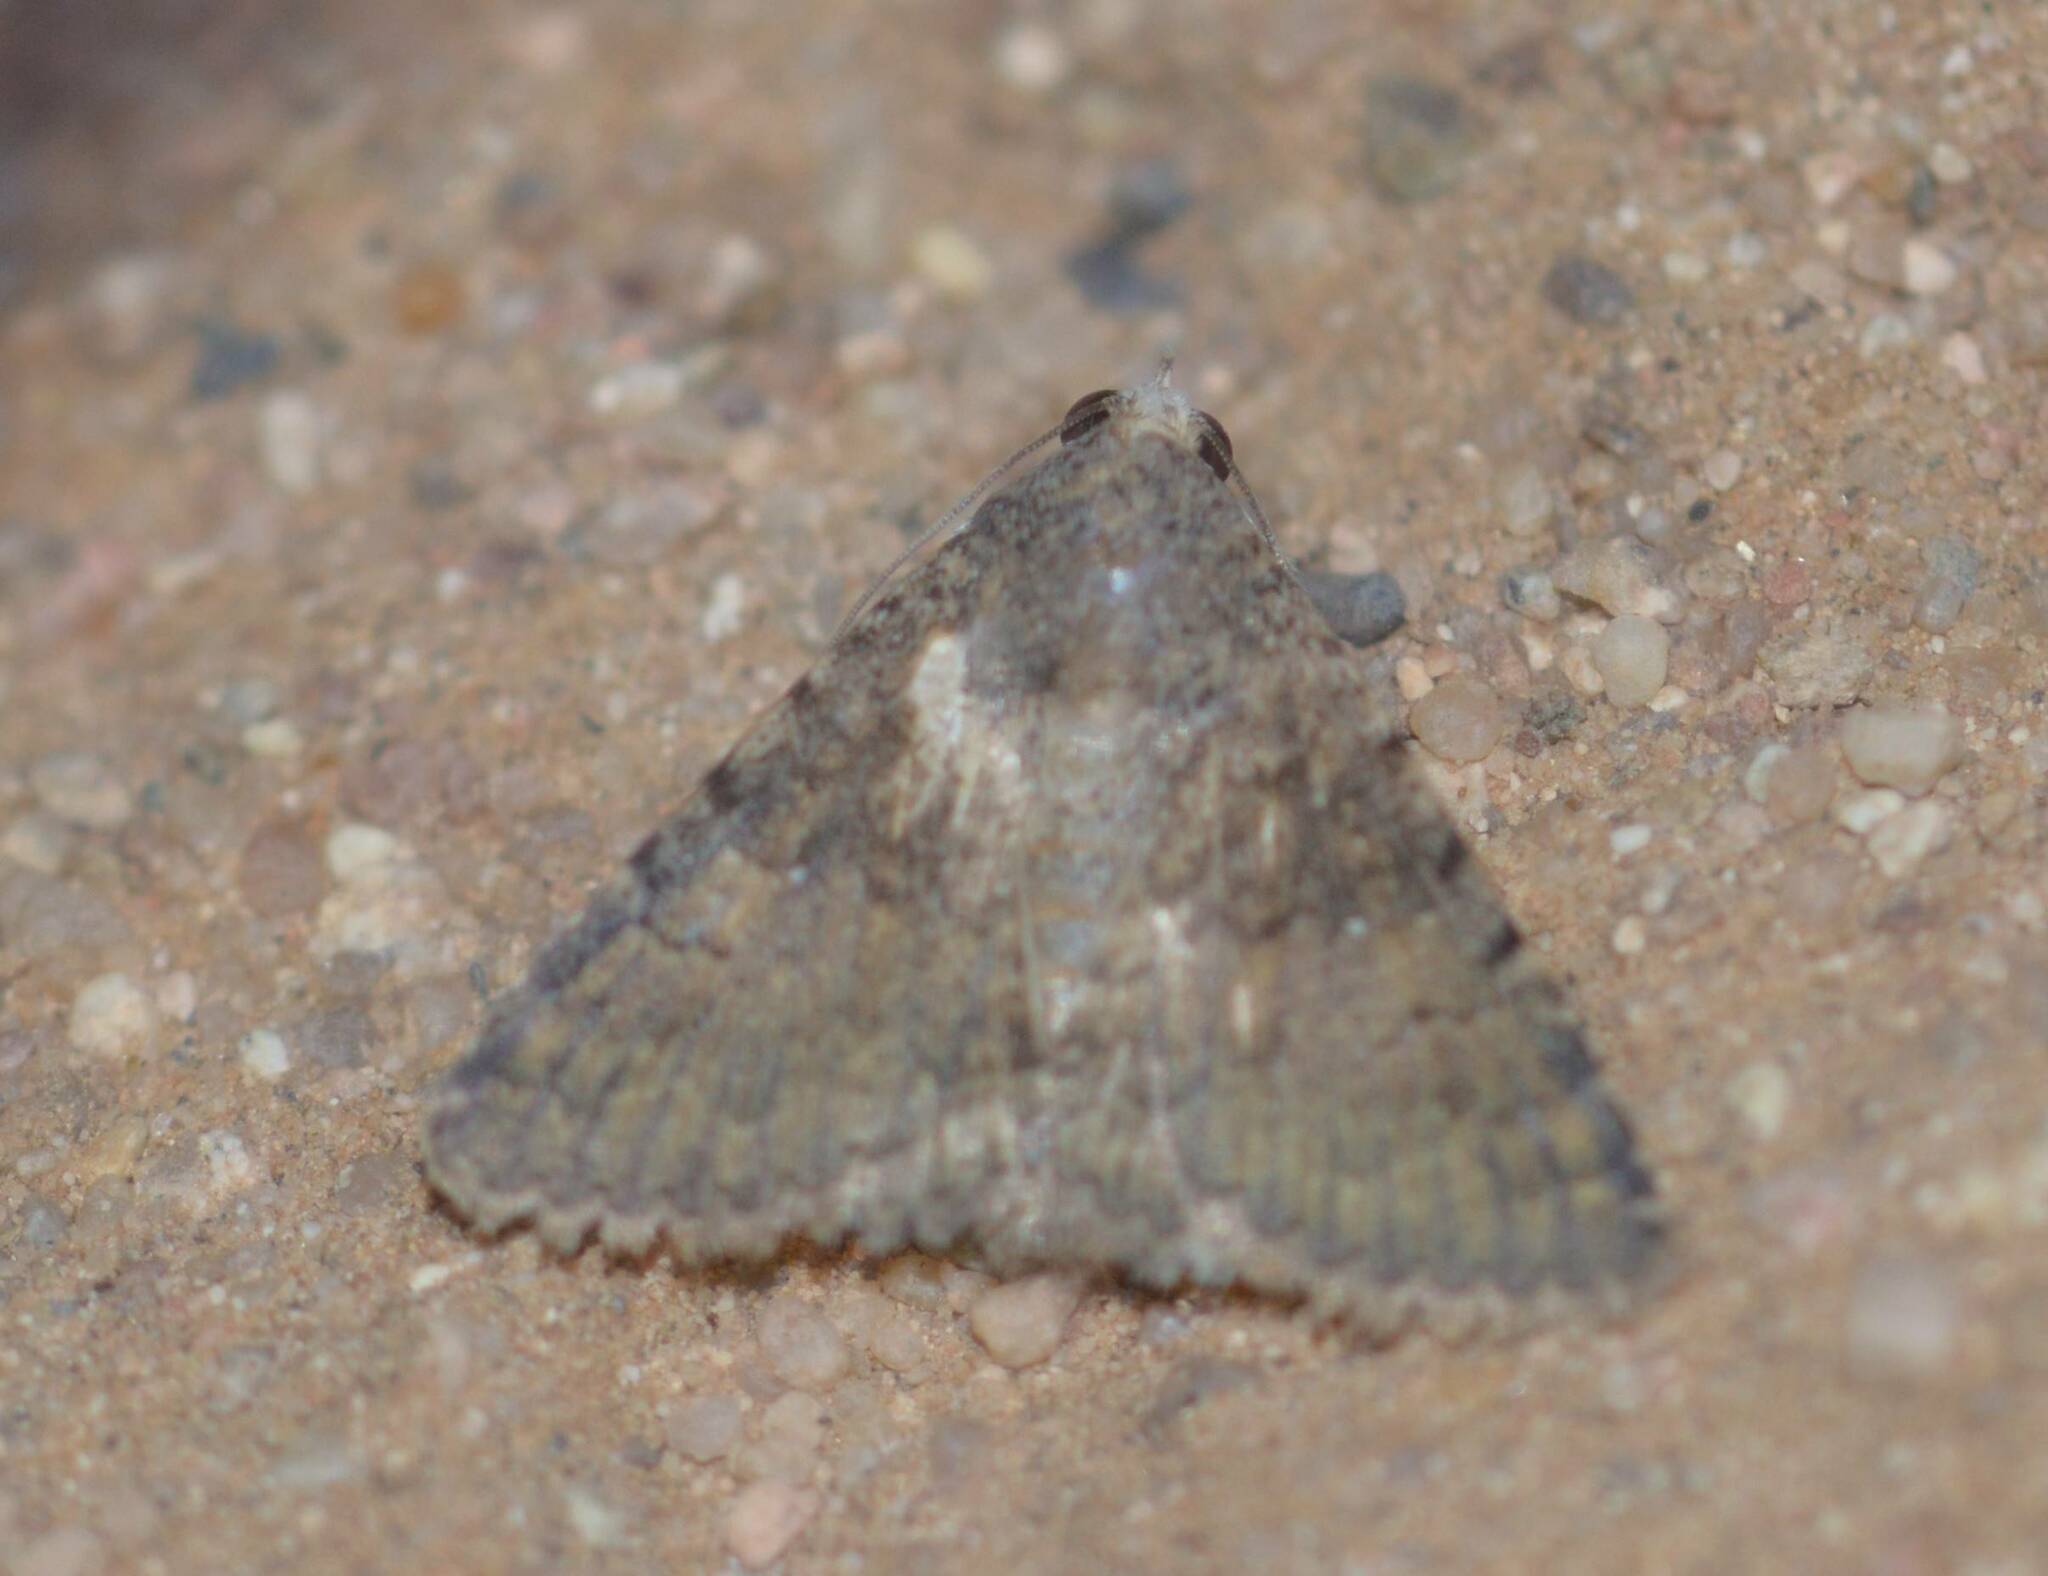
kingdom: Animalia
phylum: Arthropoda
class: Insecta
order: Lepidoptera
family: Erebidae
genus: Pandesma
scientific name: Pandesma robusta
